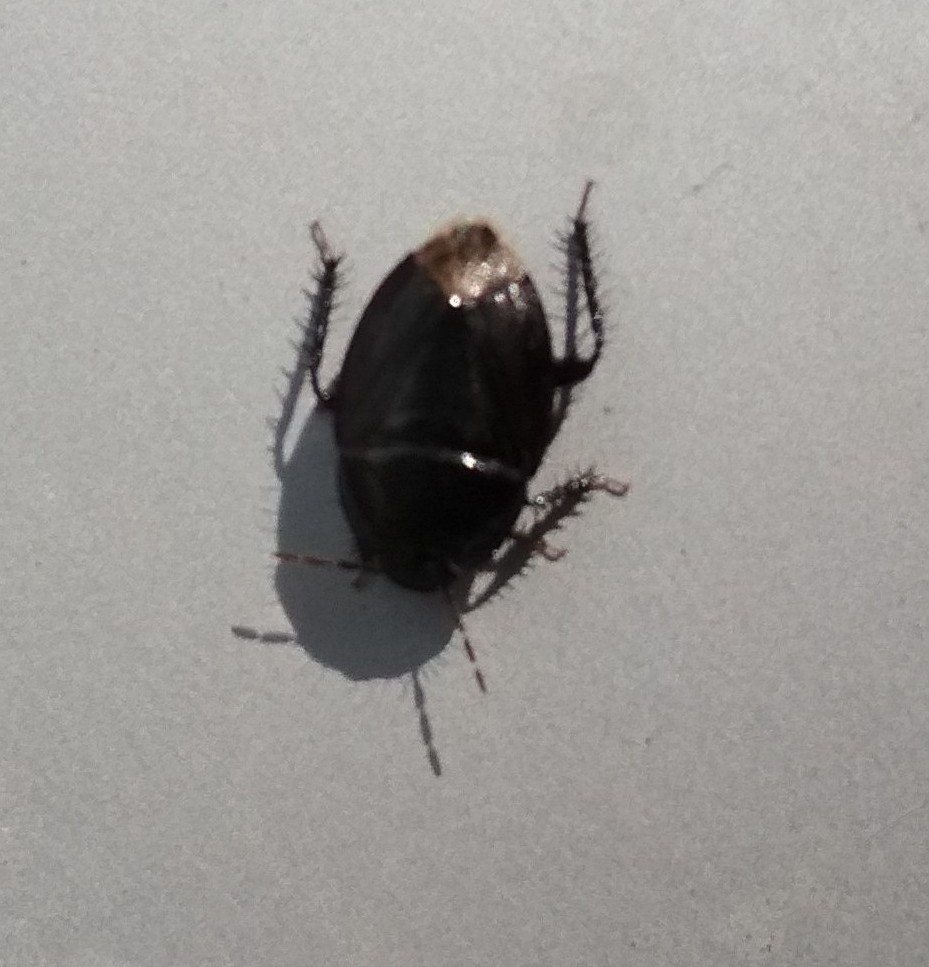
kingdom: Animalia
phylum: Arthropoda
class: Insecta
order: Hemiptera
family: Cydnidae
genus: Macroscytus
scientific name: Macroscytus brunneus
